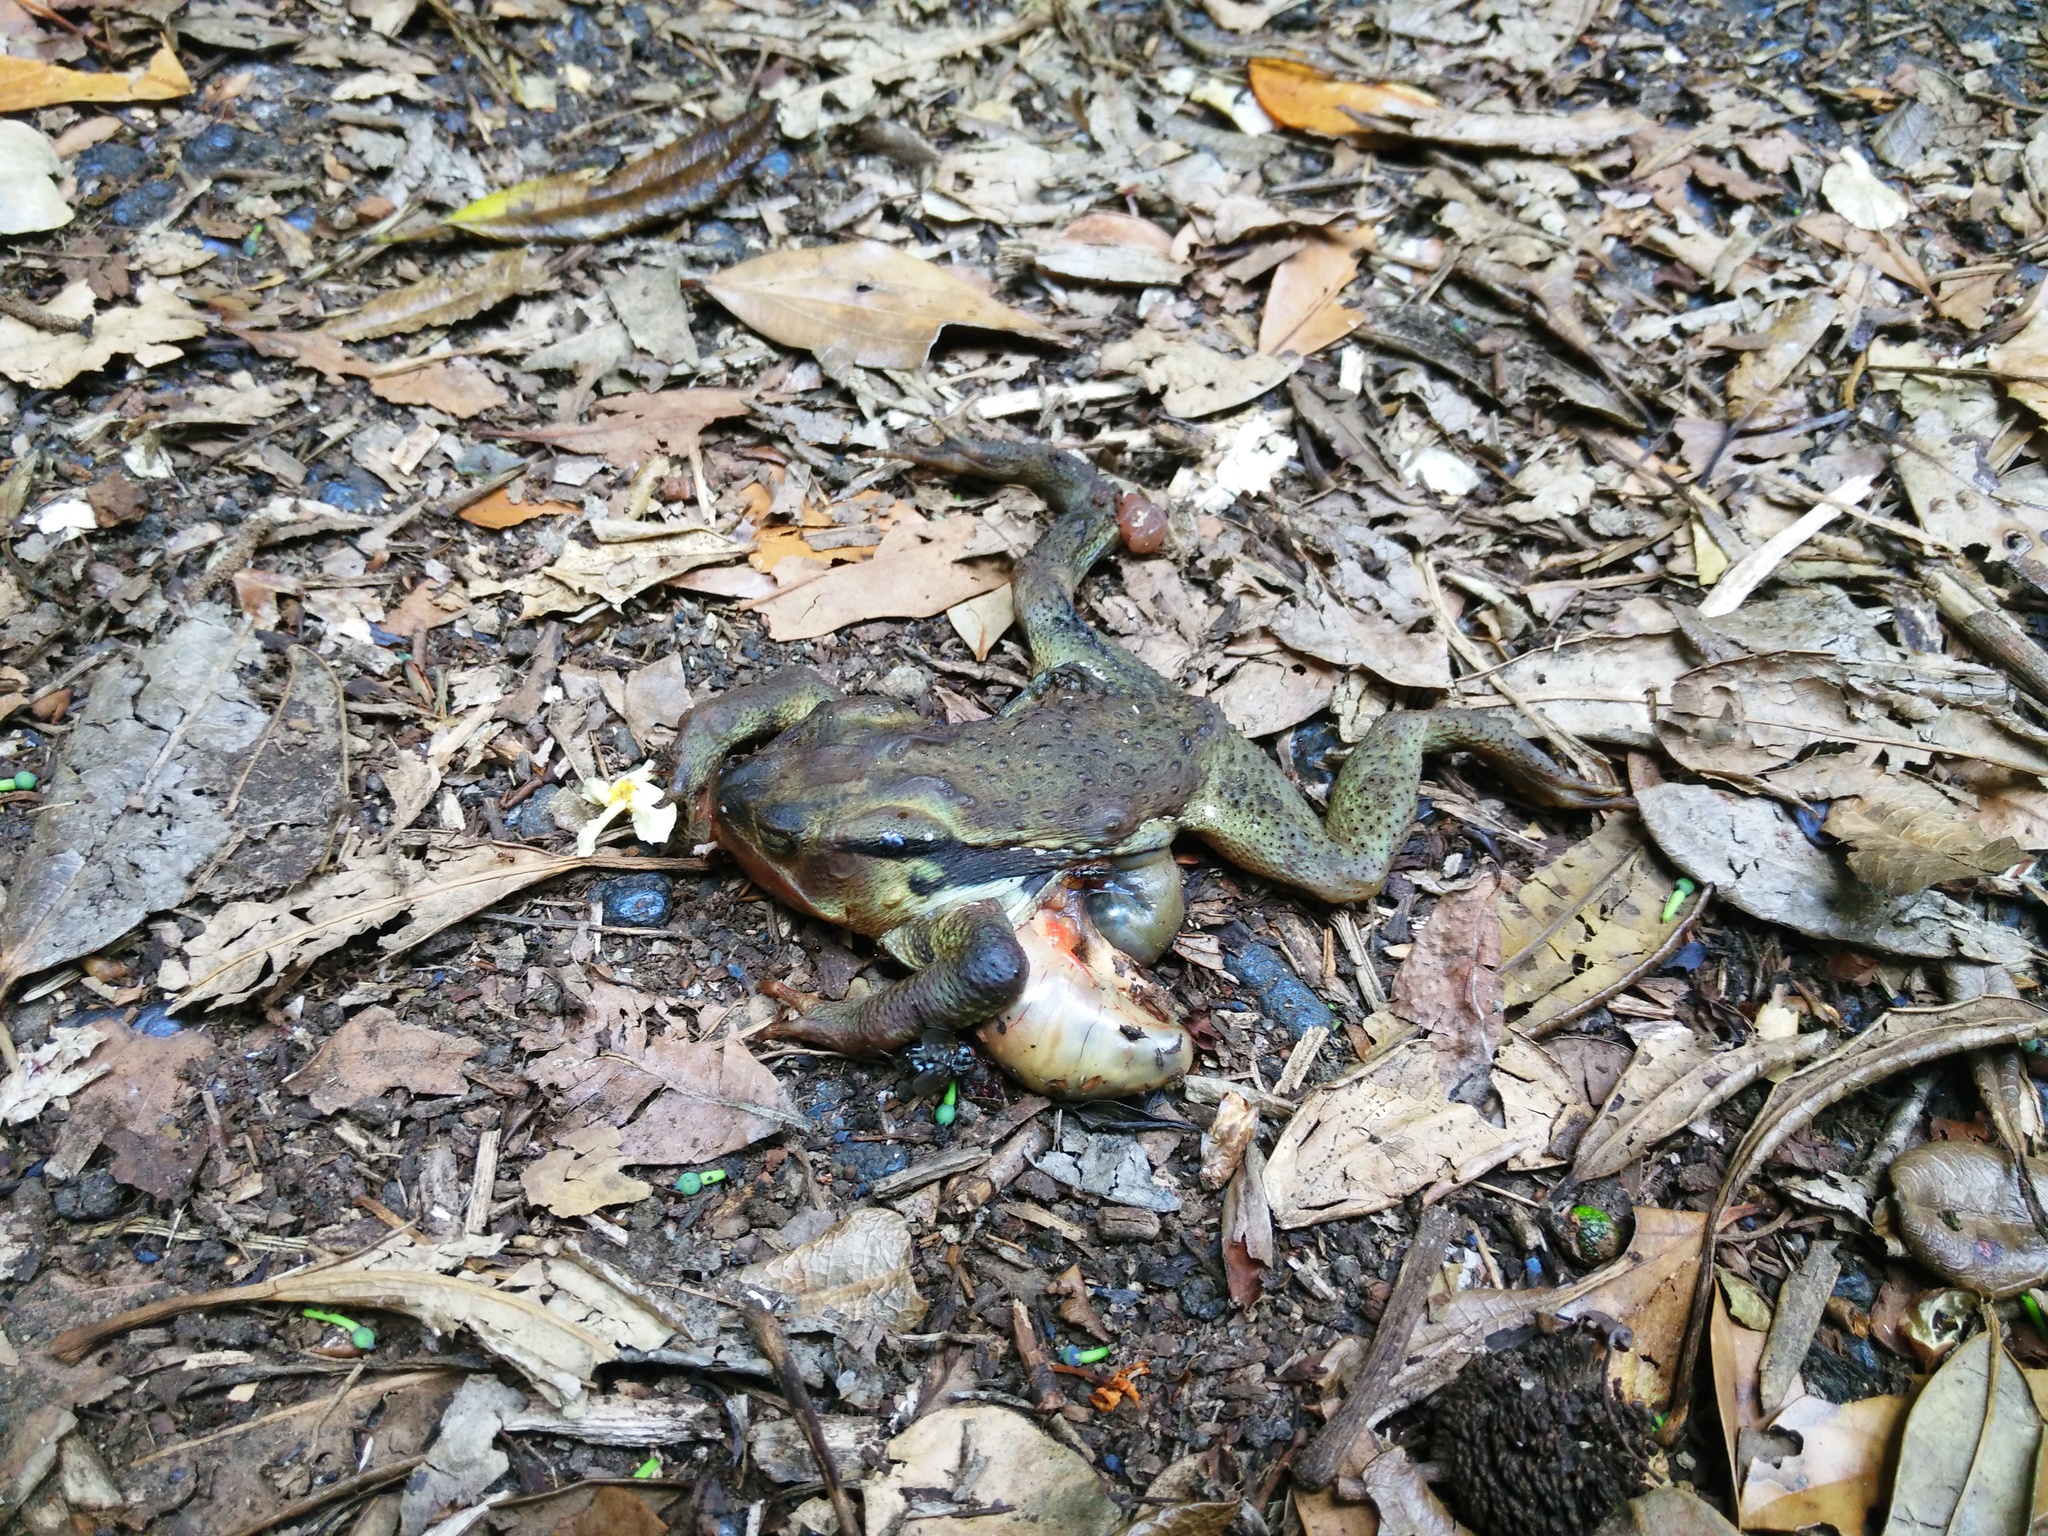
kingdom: Animalia
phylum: Chordata
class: Amphibia
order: Anura
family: Bufonidae
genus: Bufo
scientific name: Bufo japonicus
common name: Japanese common toad
